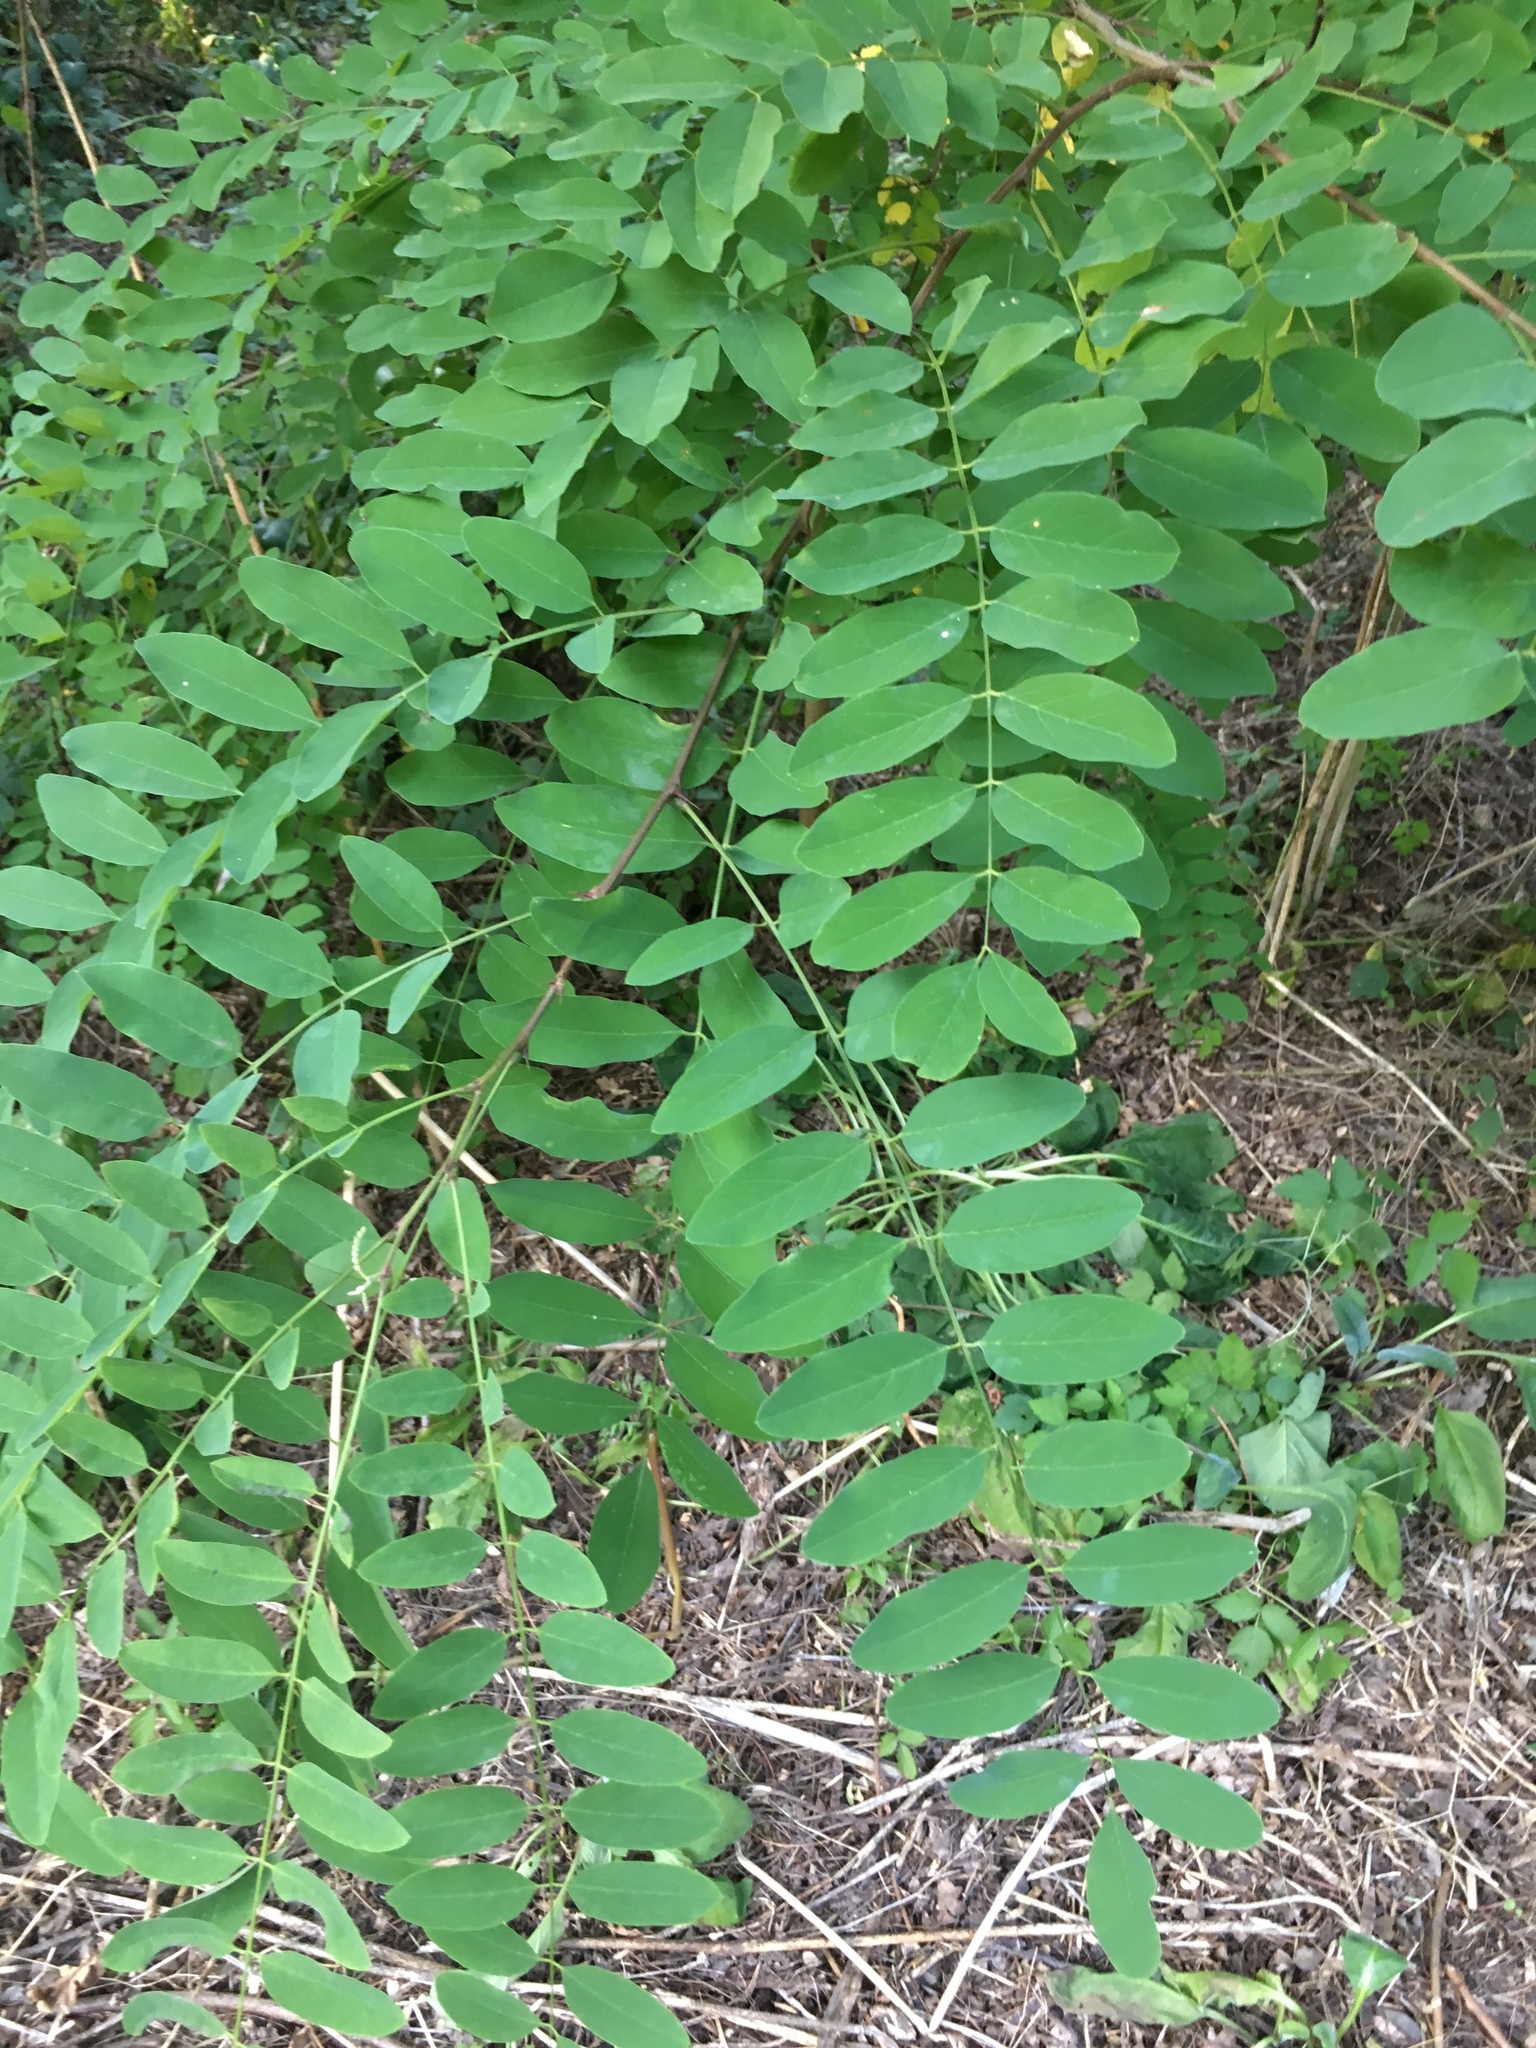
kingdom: Plantae
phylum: Tracheophyta
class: Magnoliopsida
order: Fabales
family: Fabaceae
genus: Robinia
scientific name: Robinia pseudoacacia
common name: Black locust
